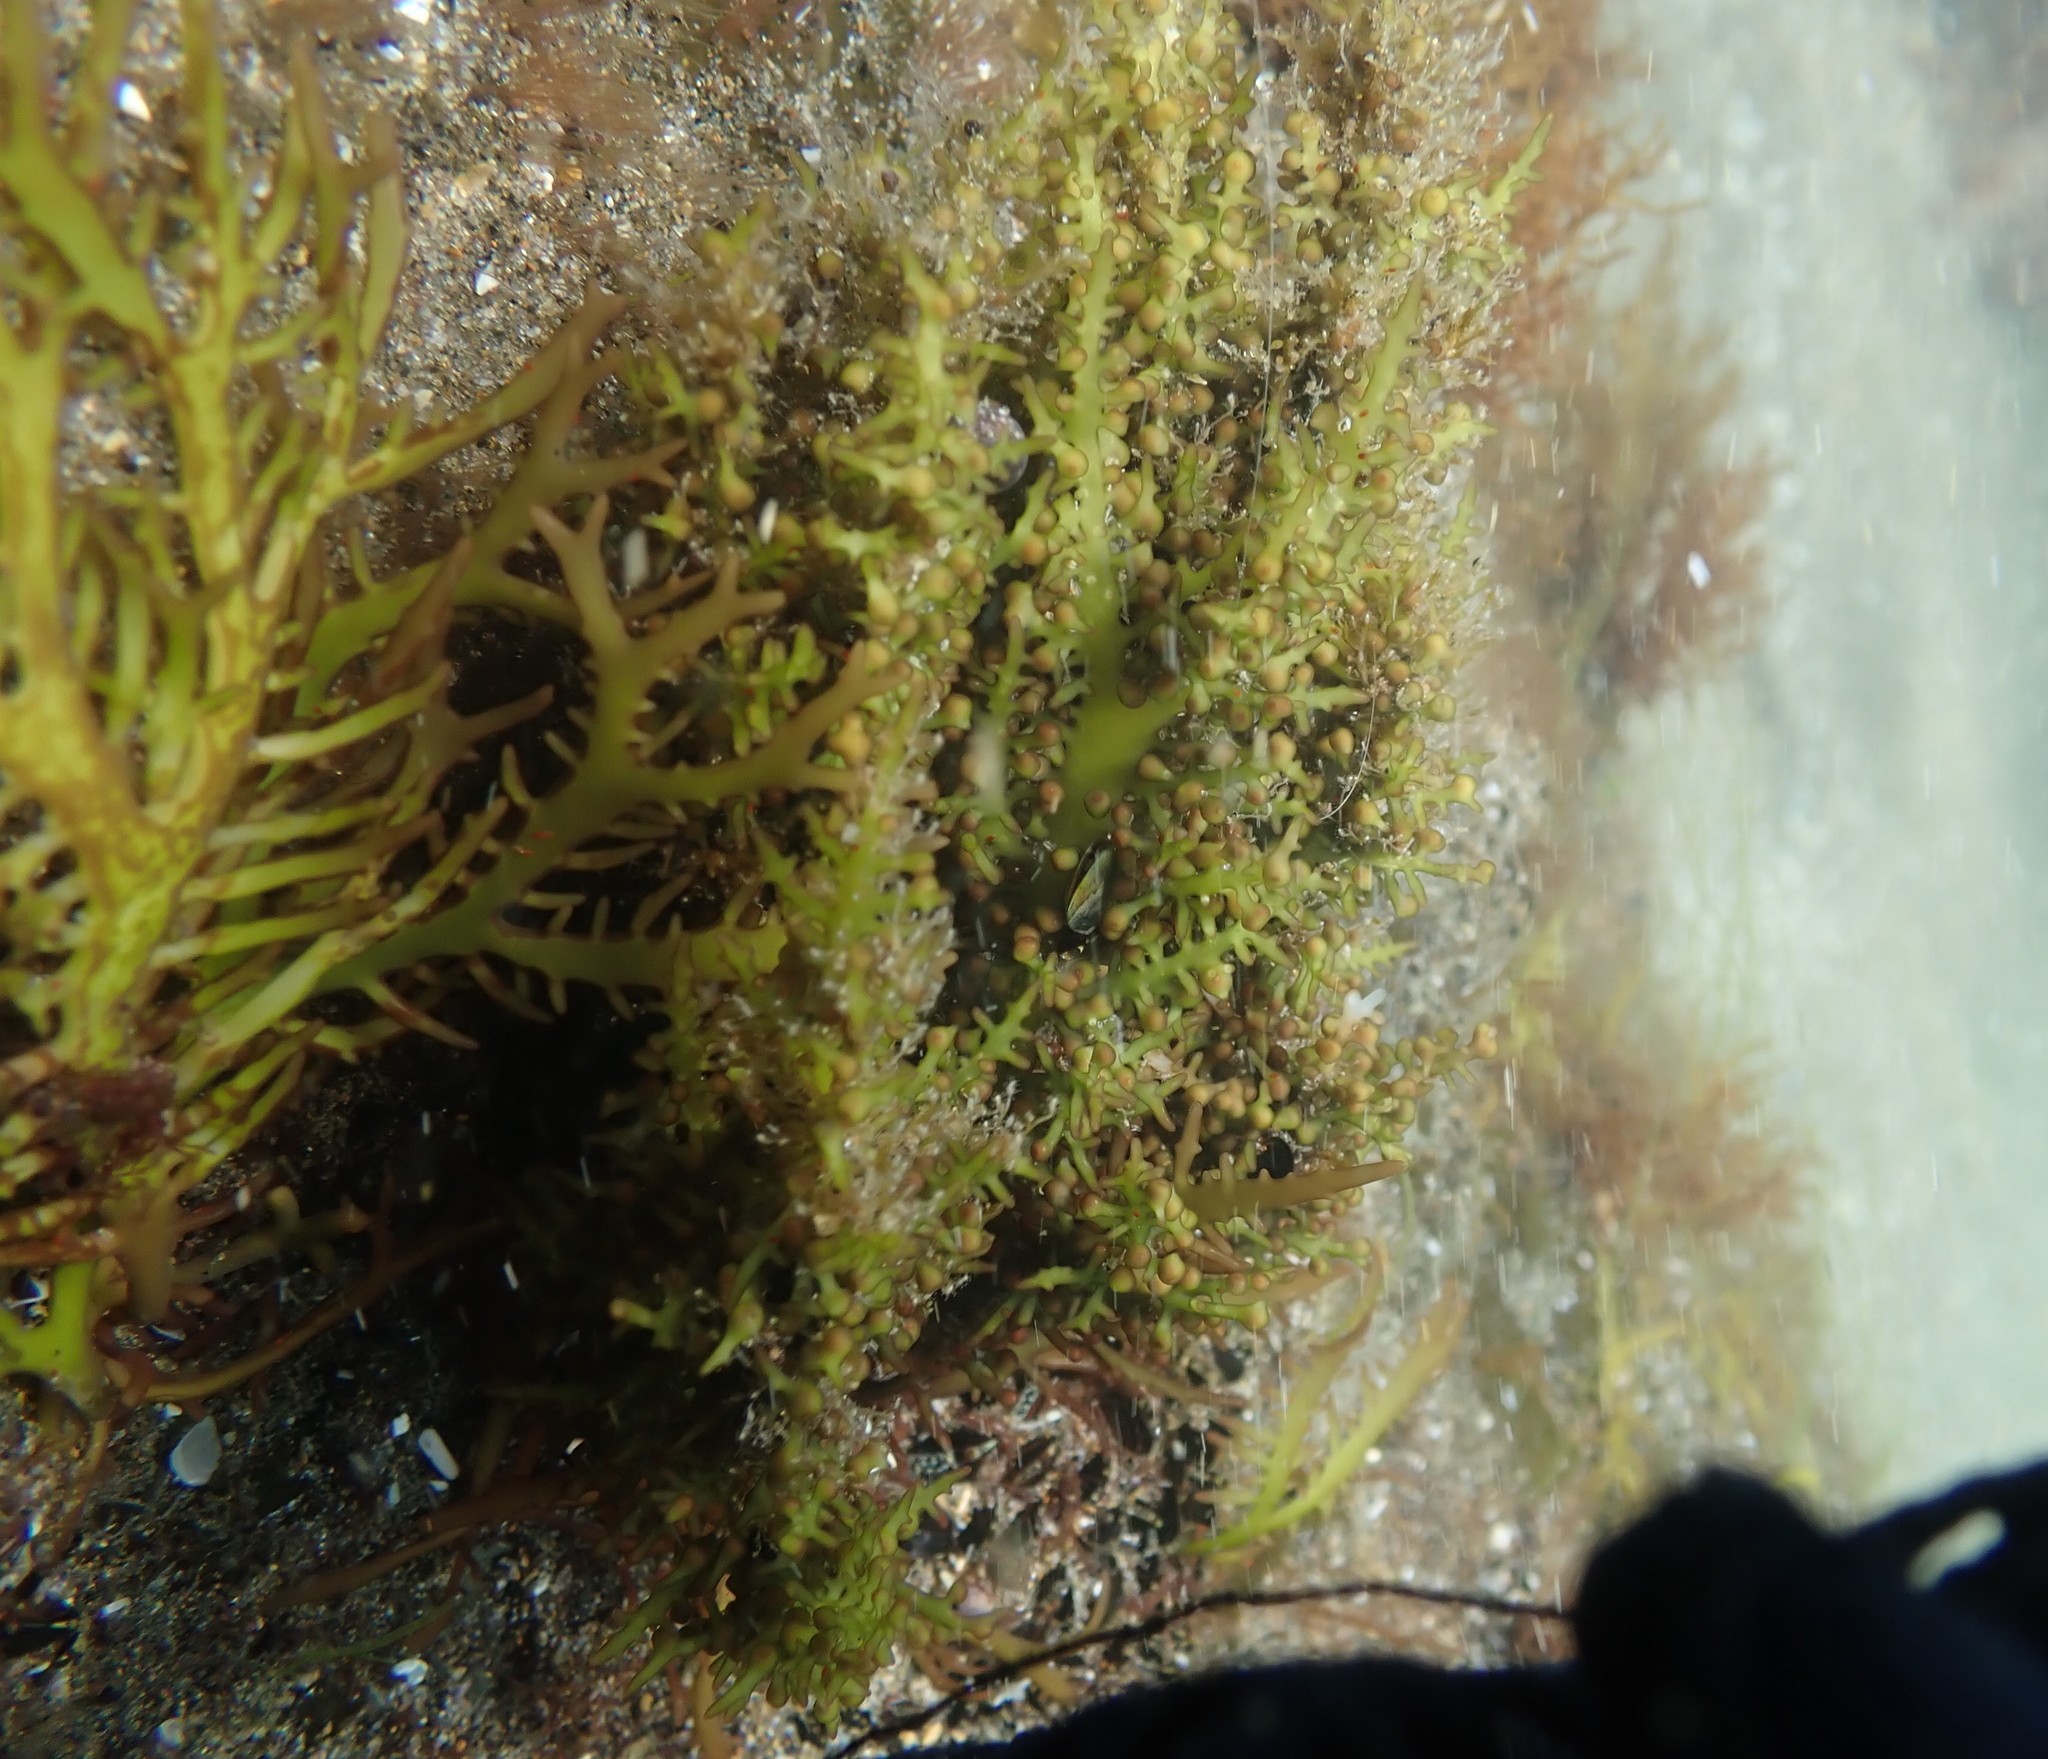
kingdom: Plantae
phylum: Rhodophyta
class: Florideophyceae
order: Gigartinales
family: Gigartinaceae
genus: Gigartina
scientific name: Gigartina macrocarpa
